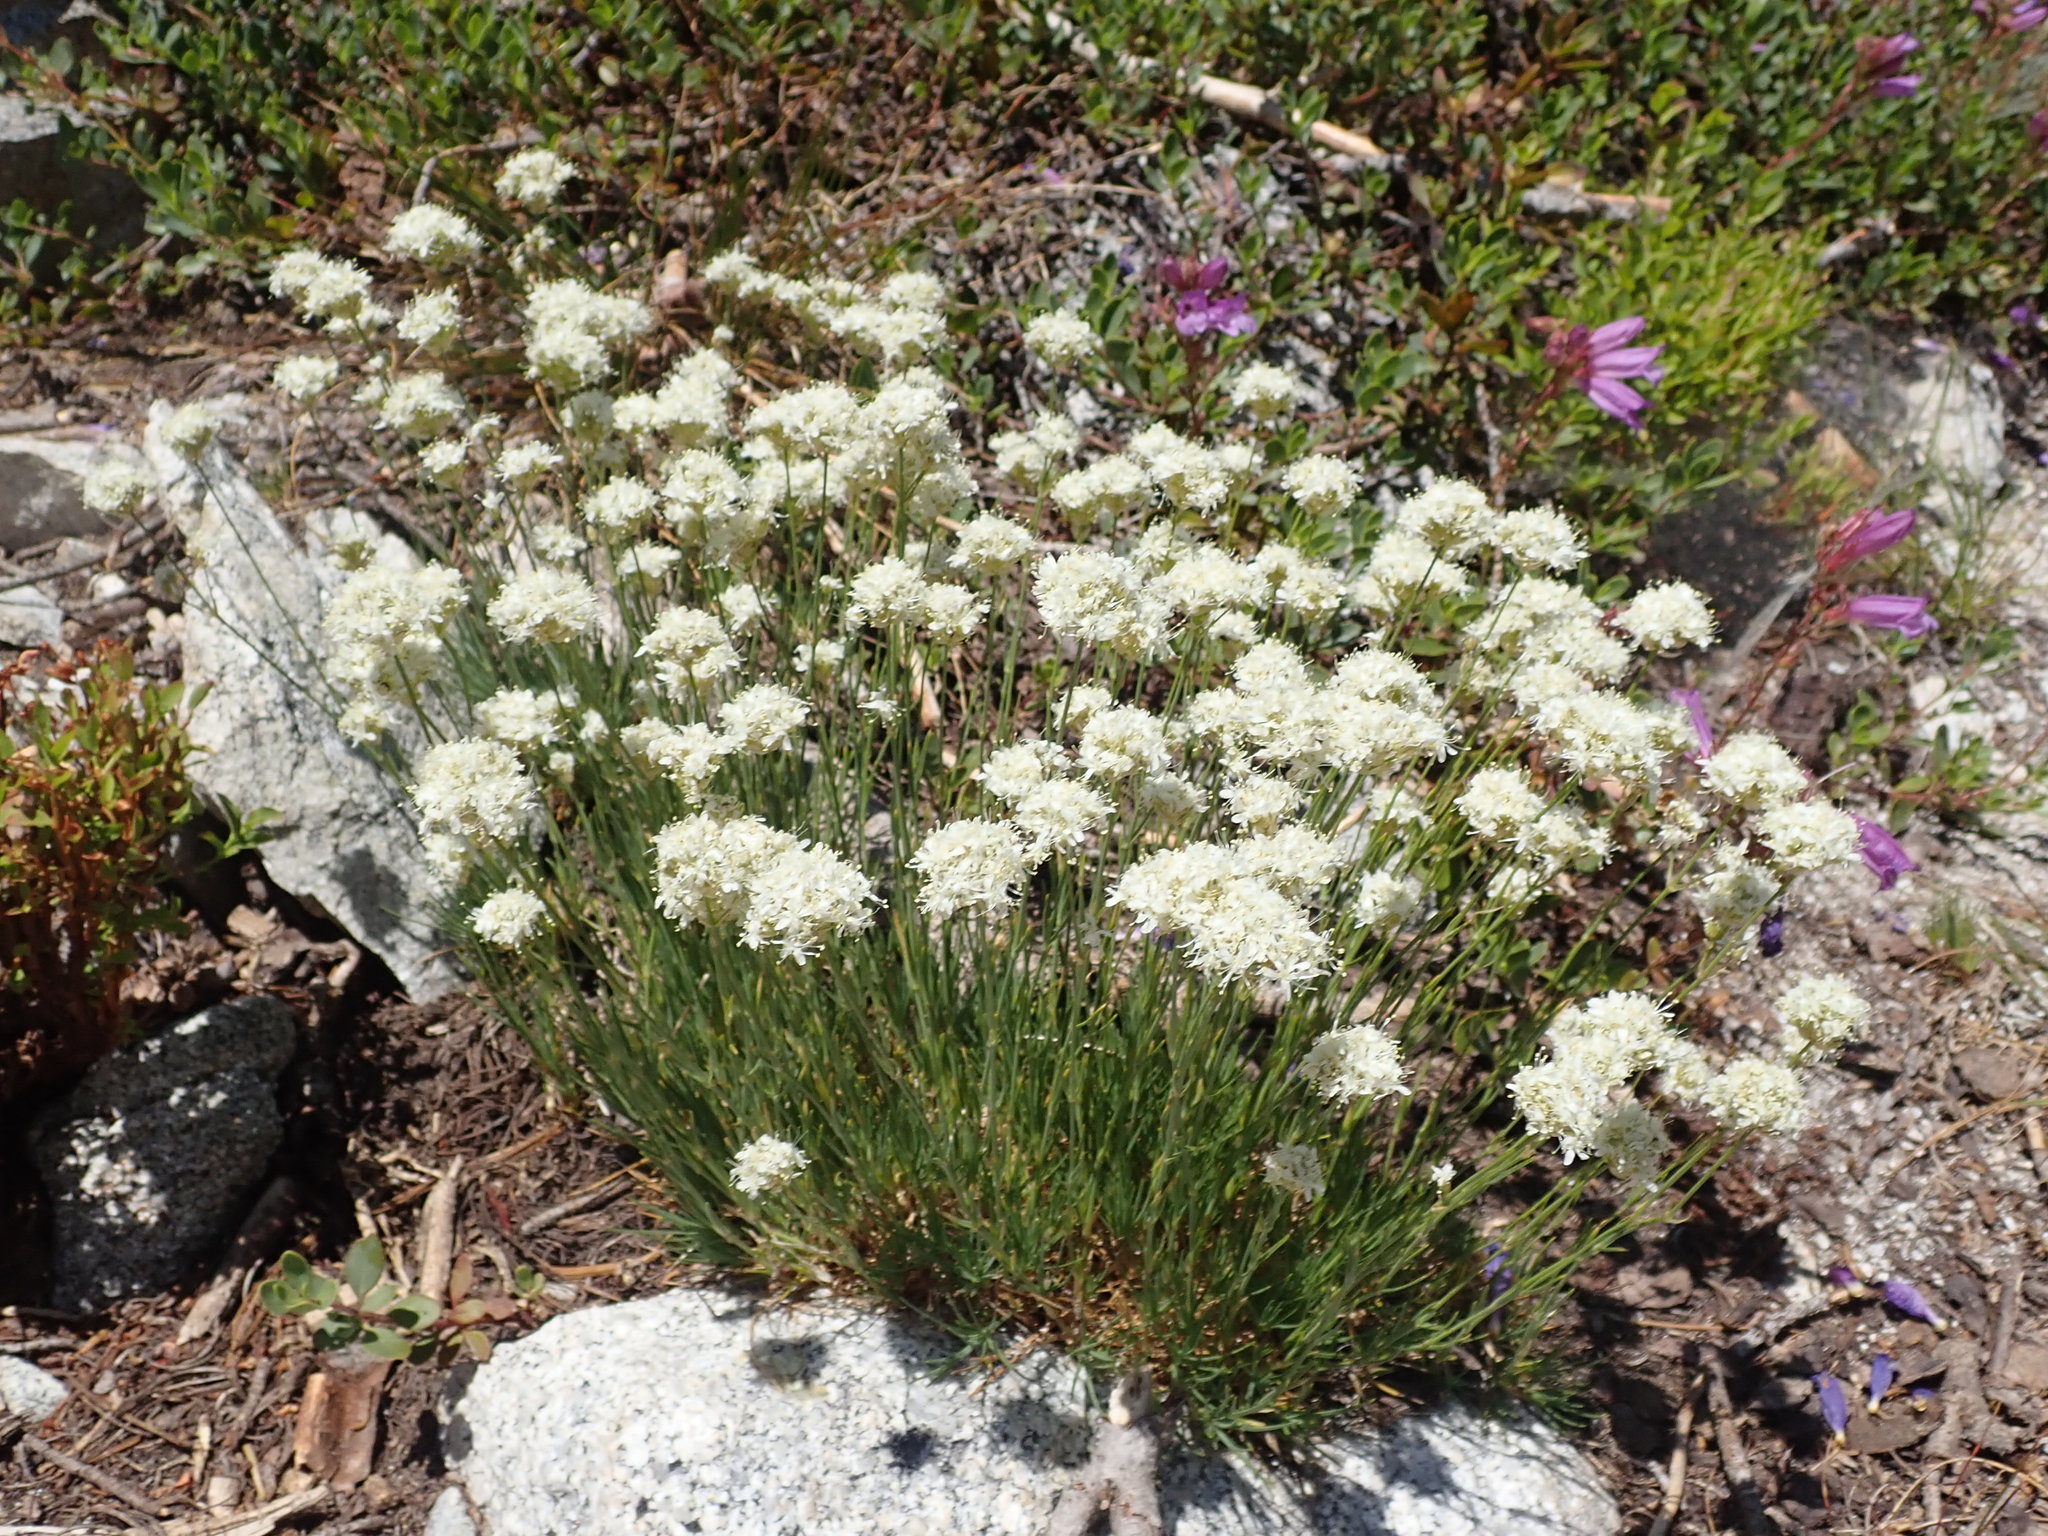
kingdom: Plantae
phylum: Tracheophyta
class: Magnoliopsida
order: Caryophyllales
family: Caryophyllaceae
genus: Eremogone
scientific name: Eremogone congesta
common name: Ballhead sandwort
